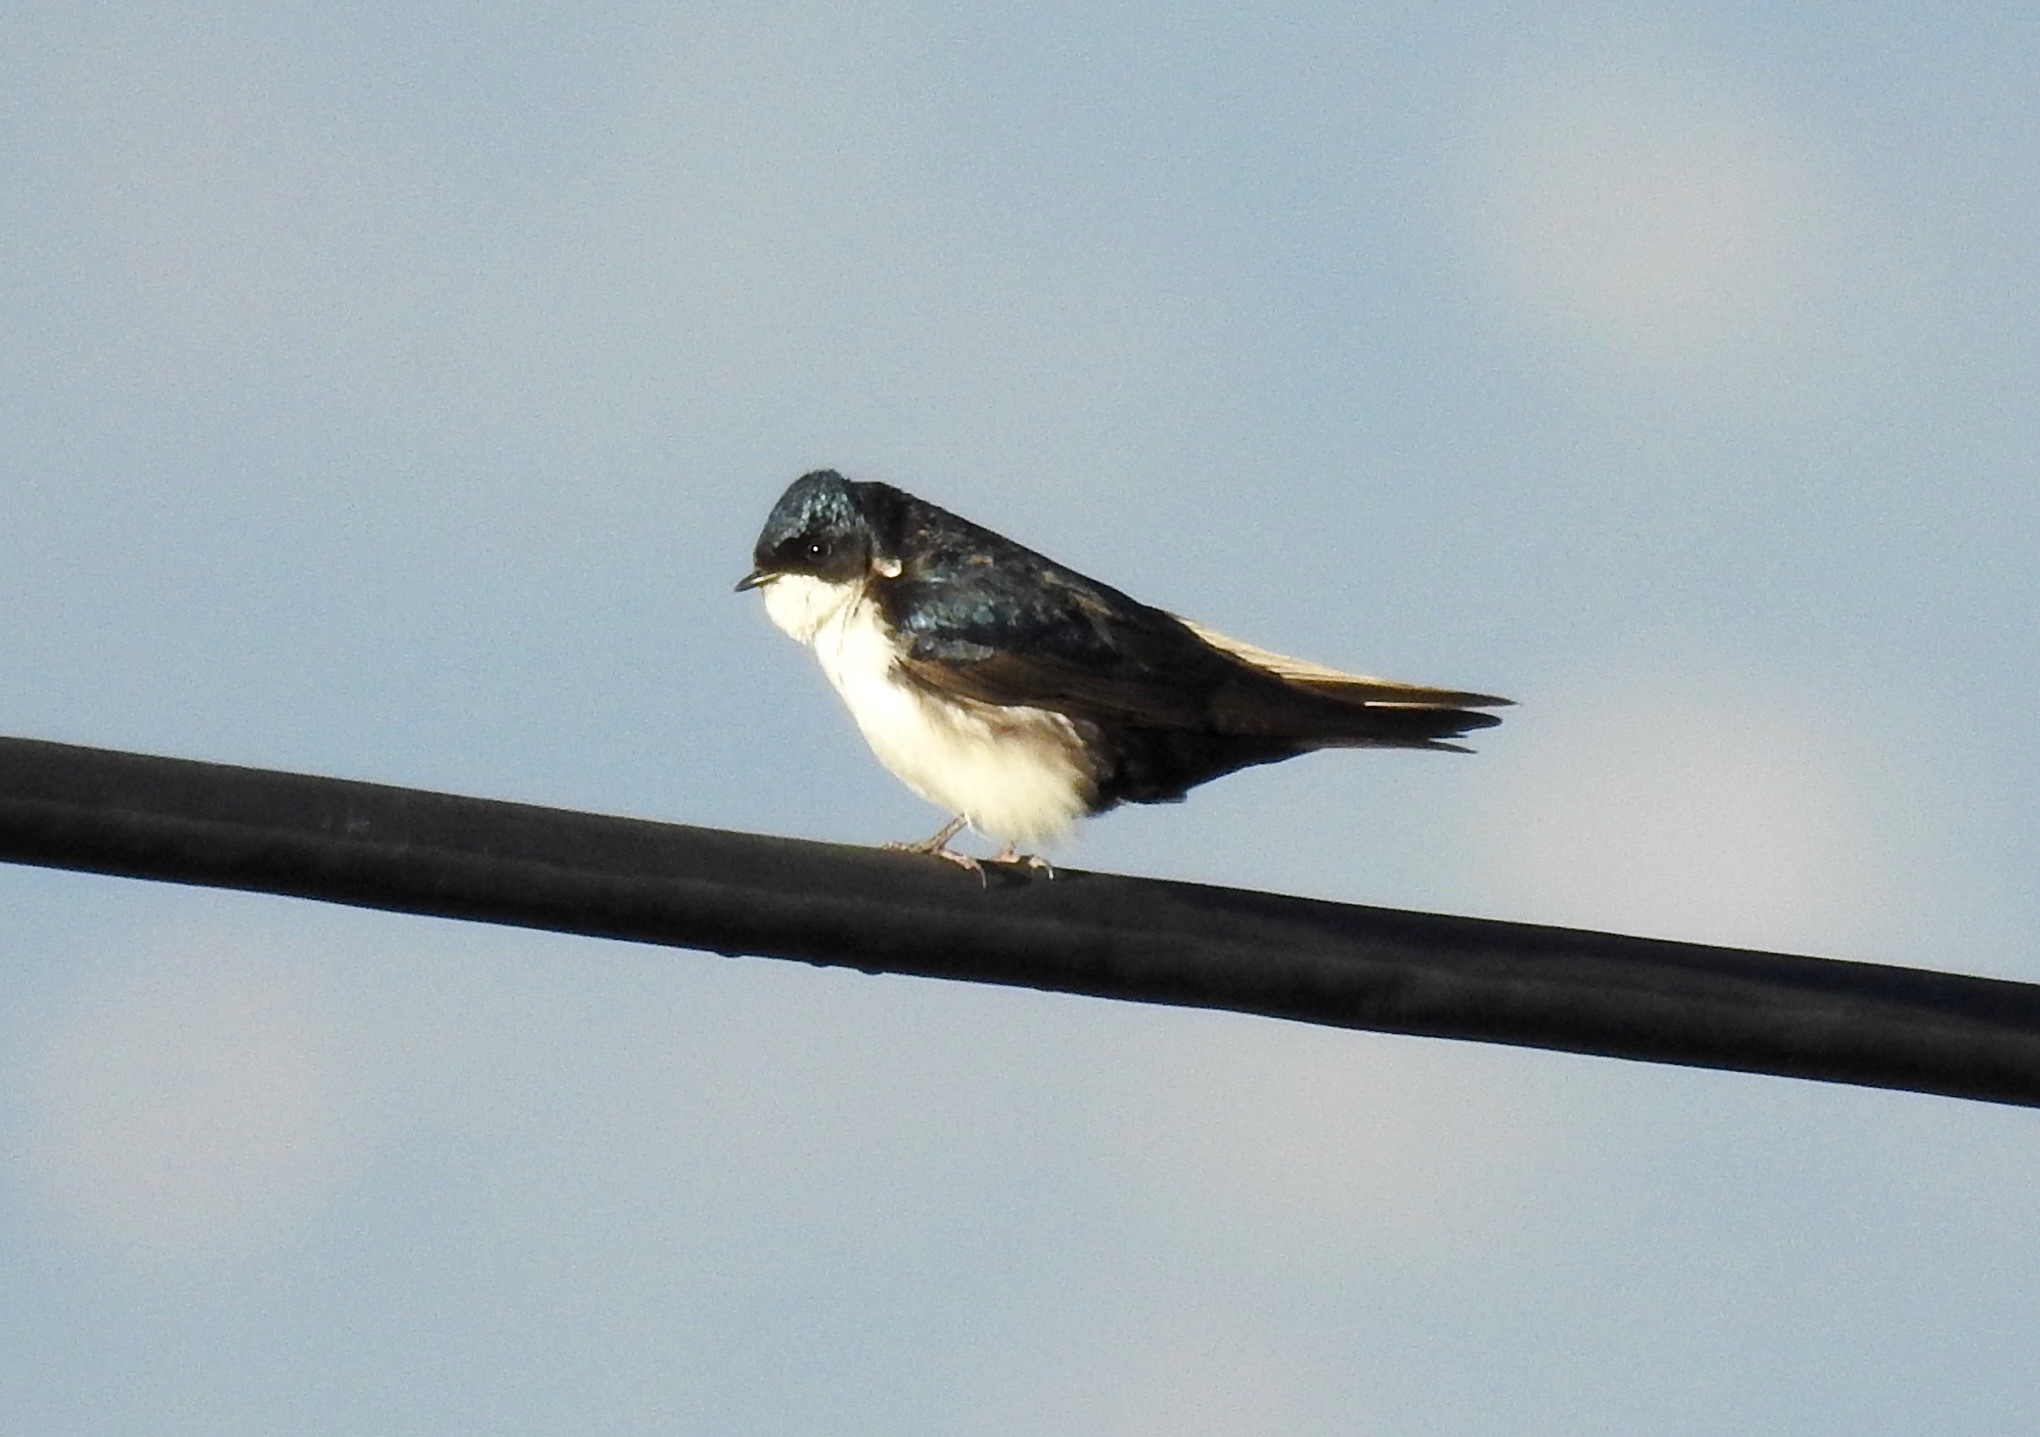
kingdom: Animalia
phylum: Chordata
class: Aves
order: Passeriformes
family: Hirundinidae
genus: Notiochelidon
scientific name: Notiochelidon cyanoleuca
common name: Blue-and-white swallow
